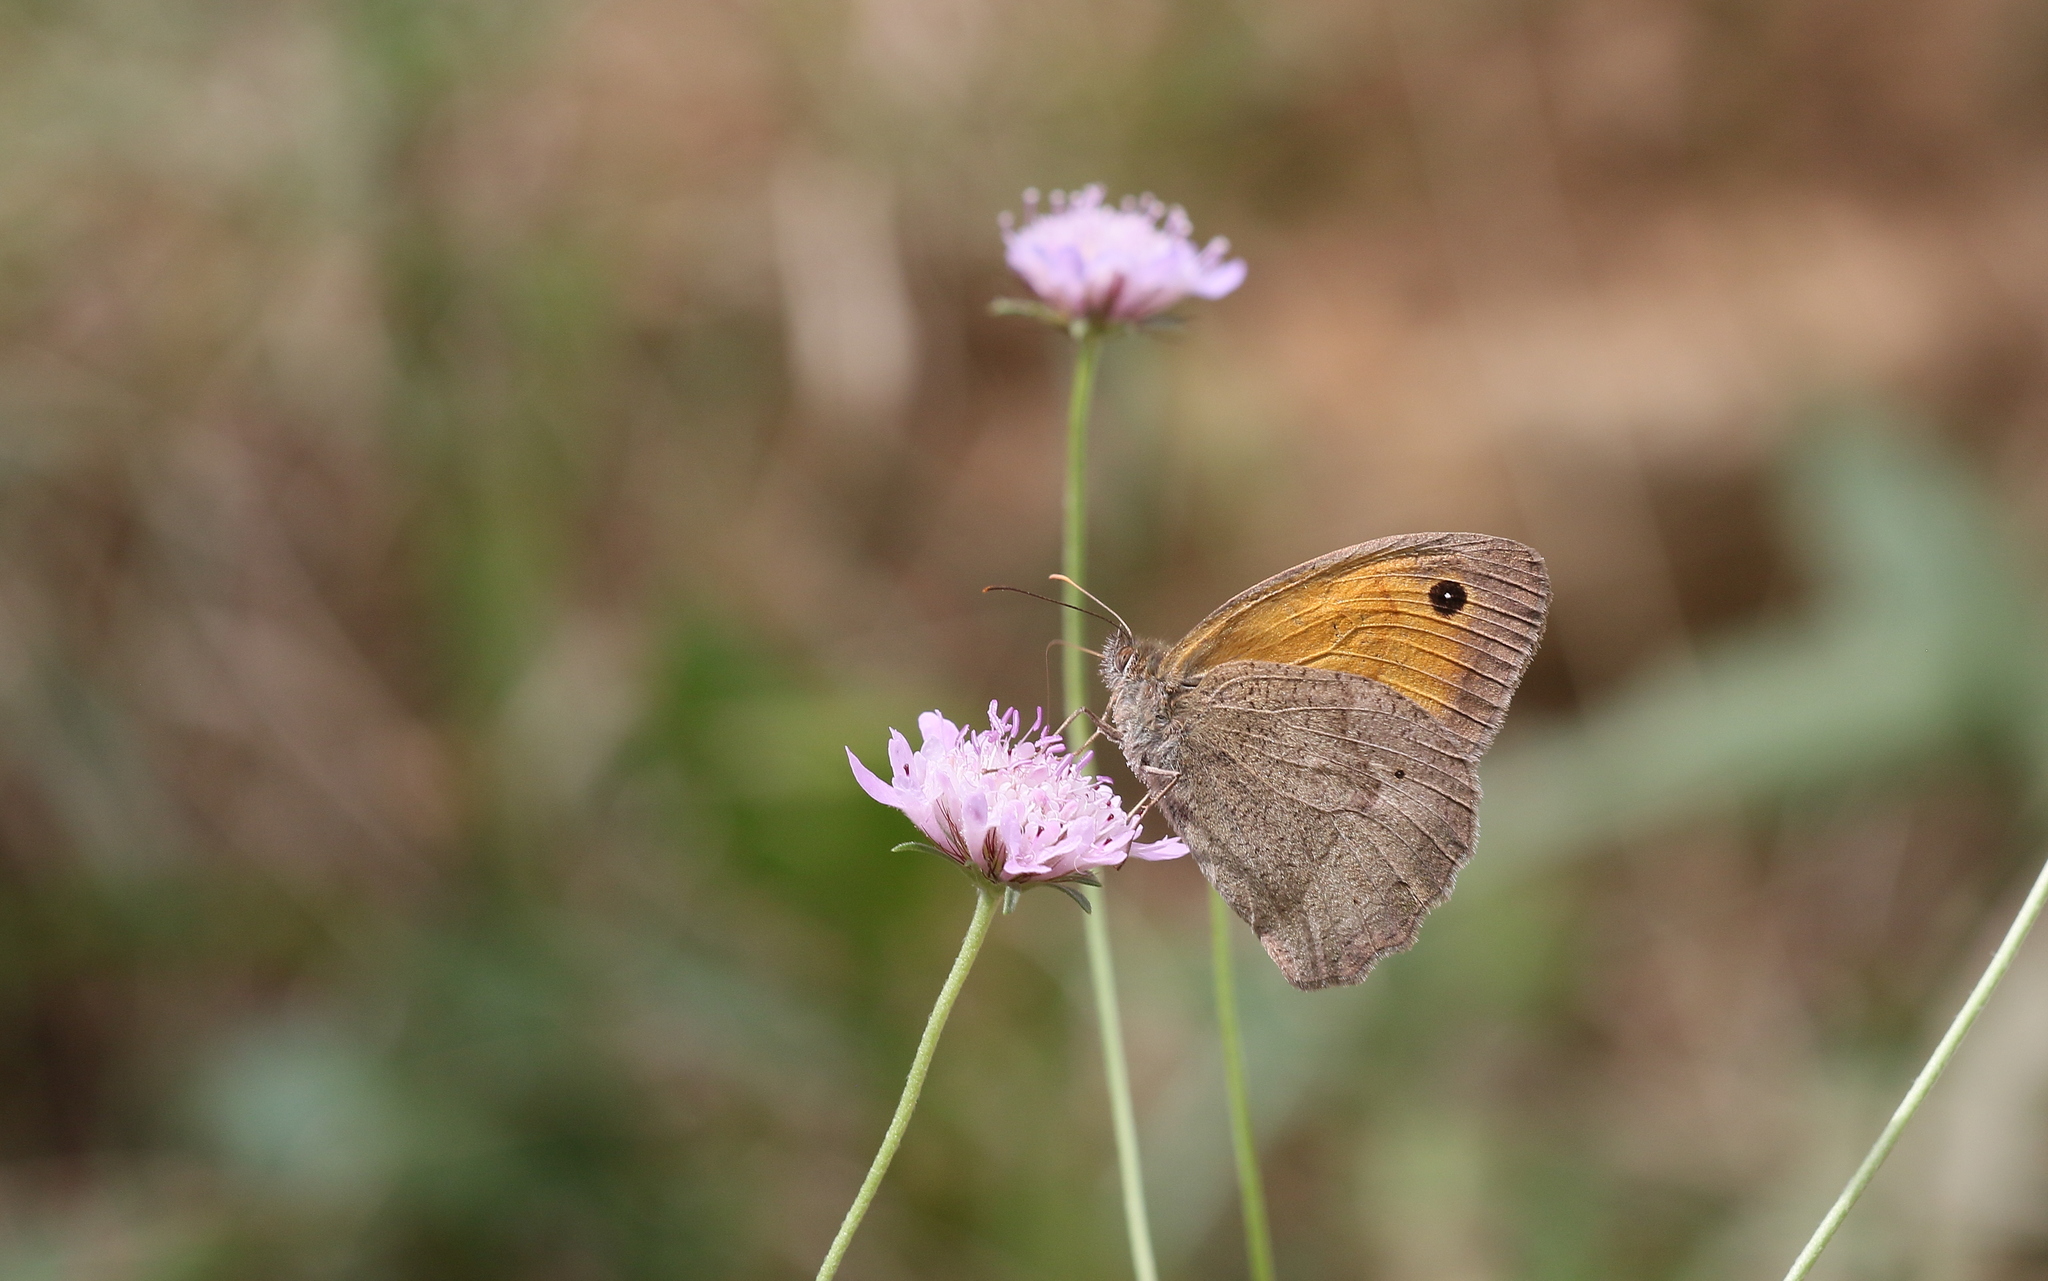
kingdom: Animalia
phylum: Arthropoda
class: Insecta
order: Lepidoptera
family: Nymphalidae
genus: Maniola
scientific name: Maniola jurtina
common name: Meadow brown
